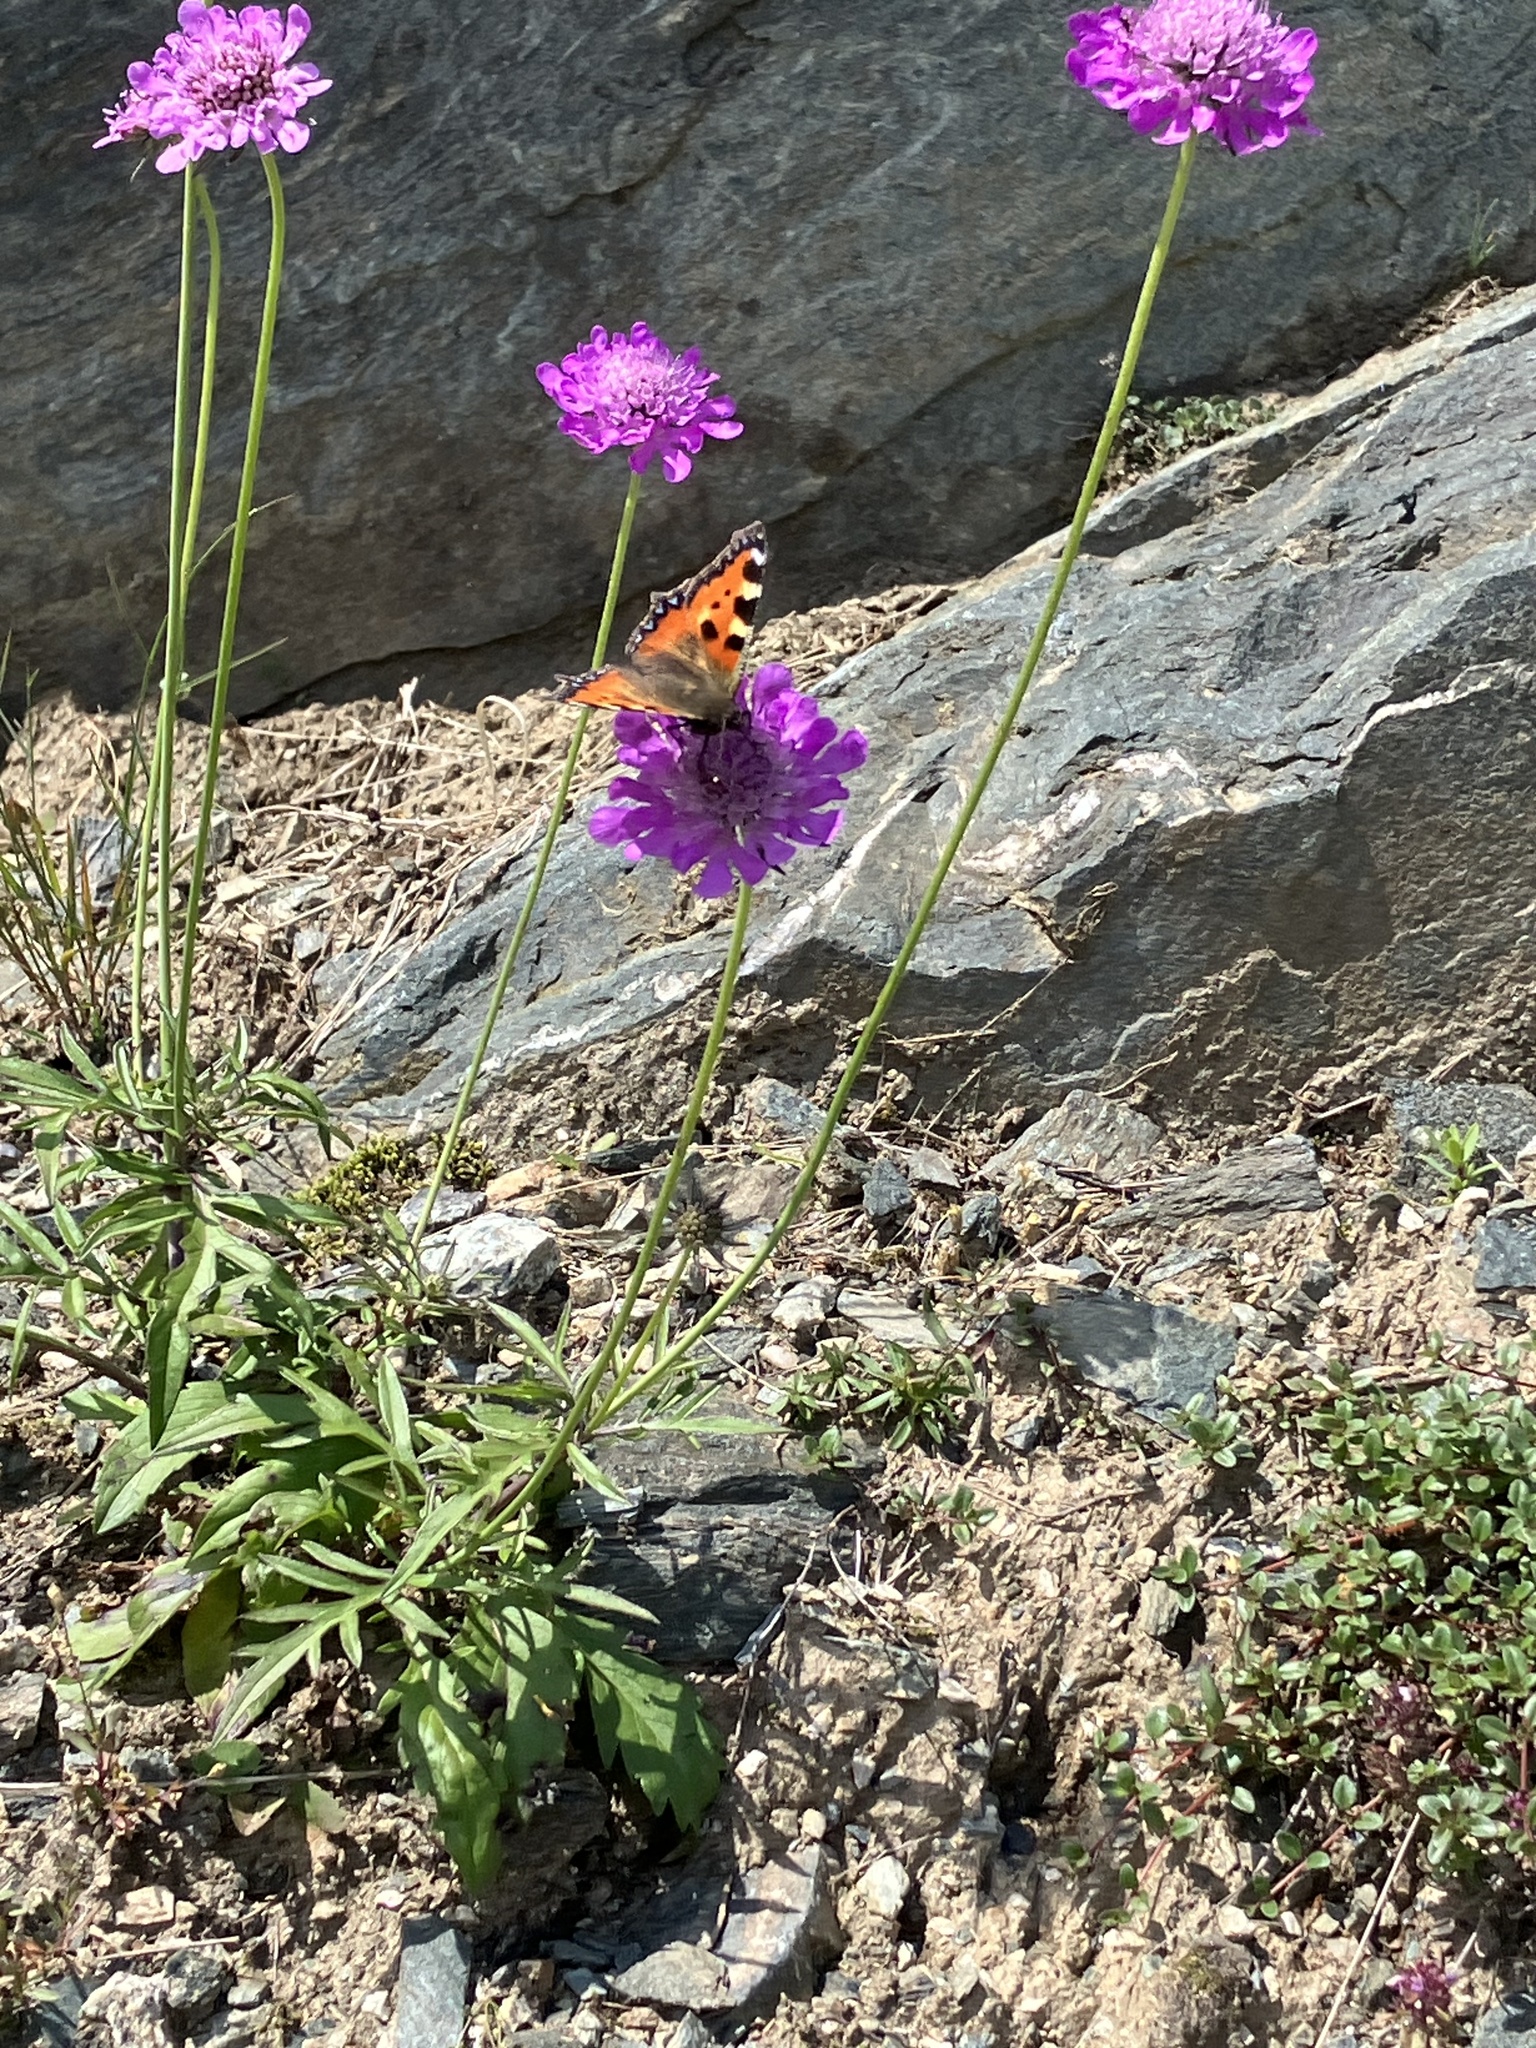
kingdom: Animalia
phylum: Arthropoda
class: Insecta
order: Lepidoptera
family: Nymphalidae
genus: Aglais
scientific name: Aglais urticae
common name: Small tortoiseshell
